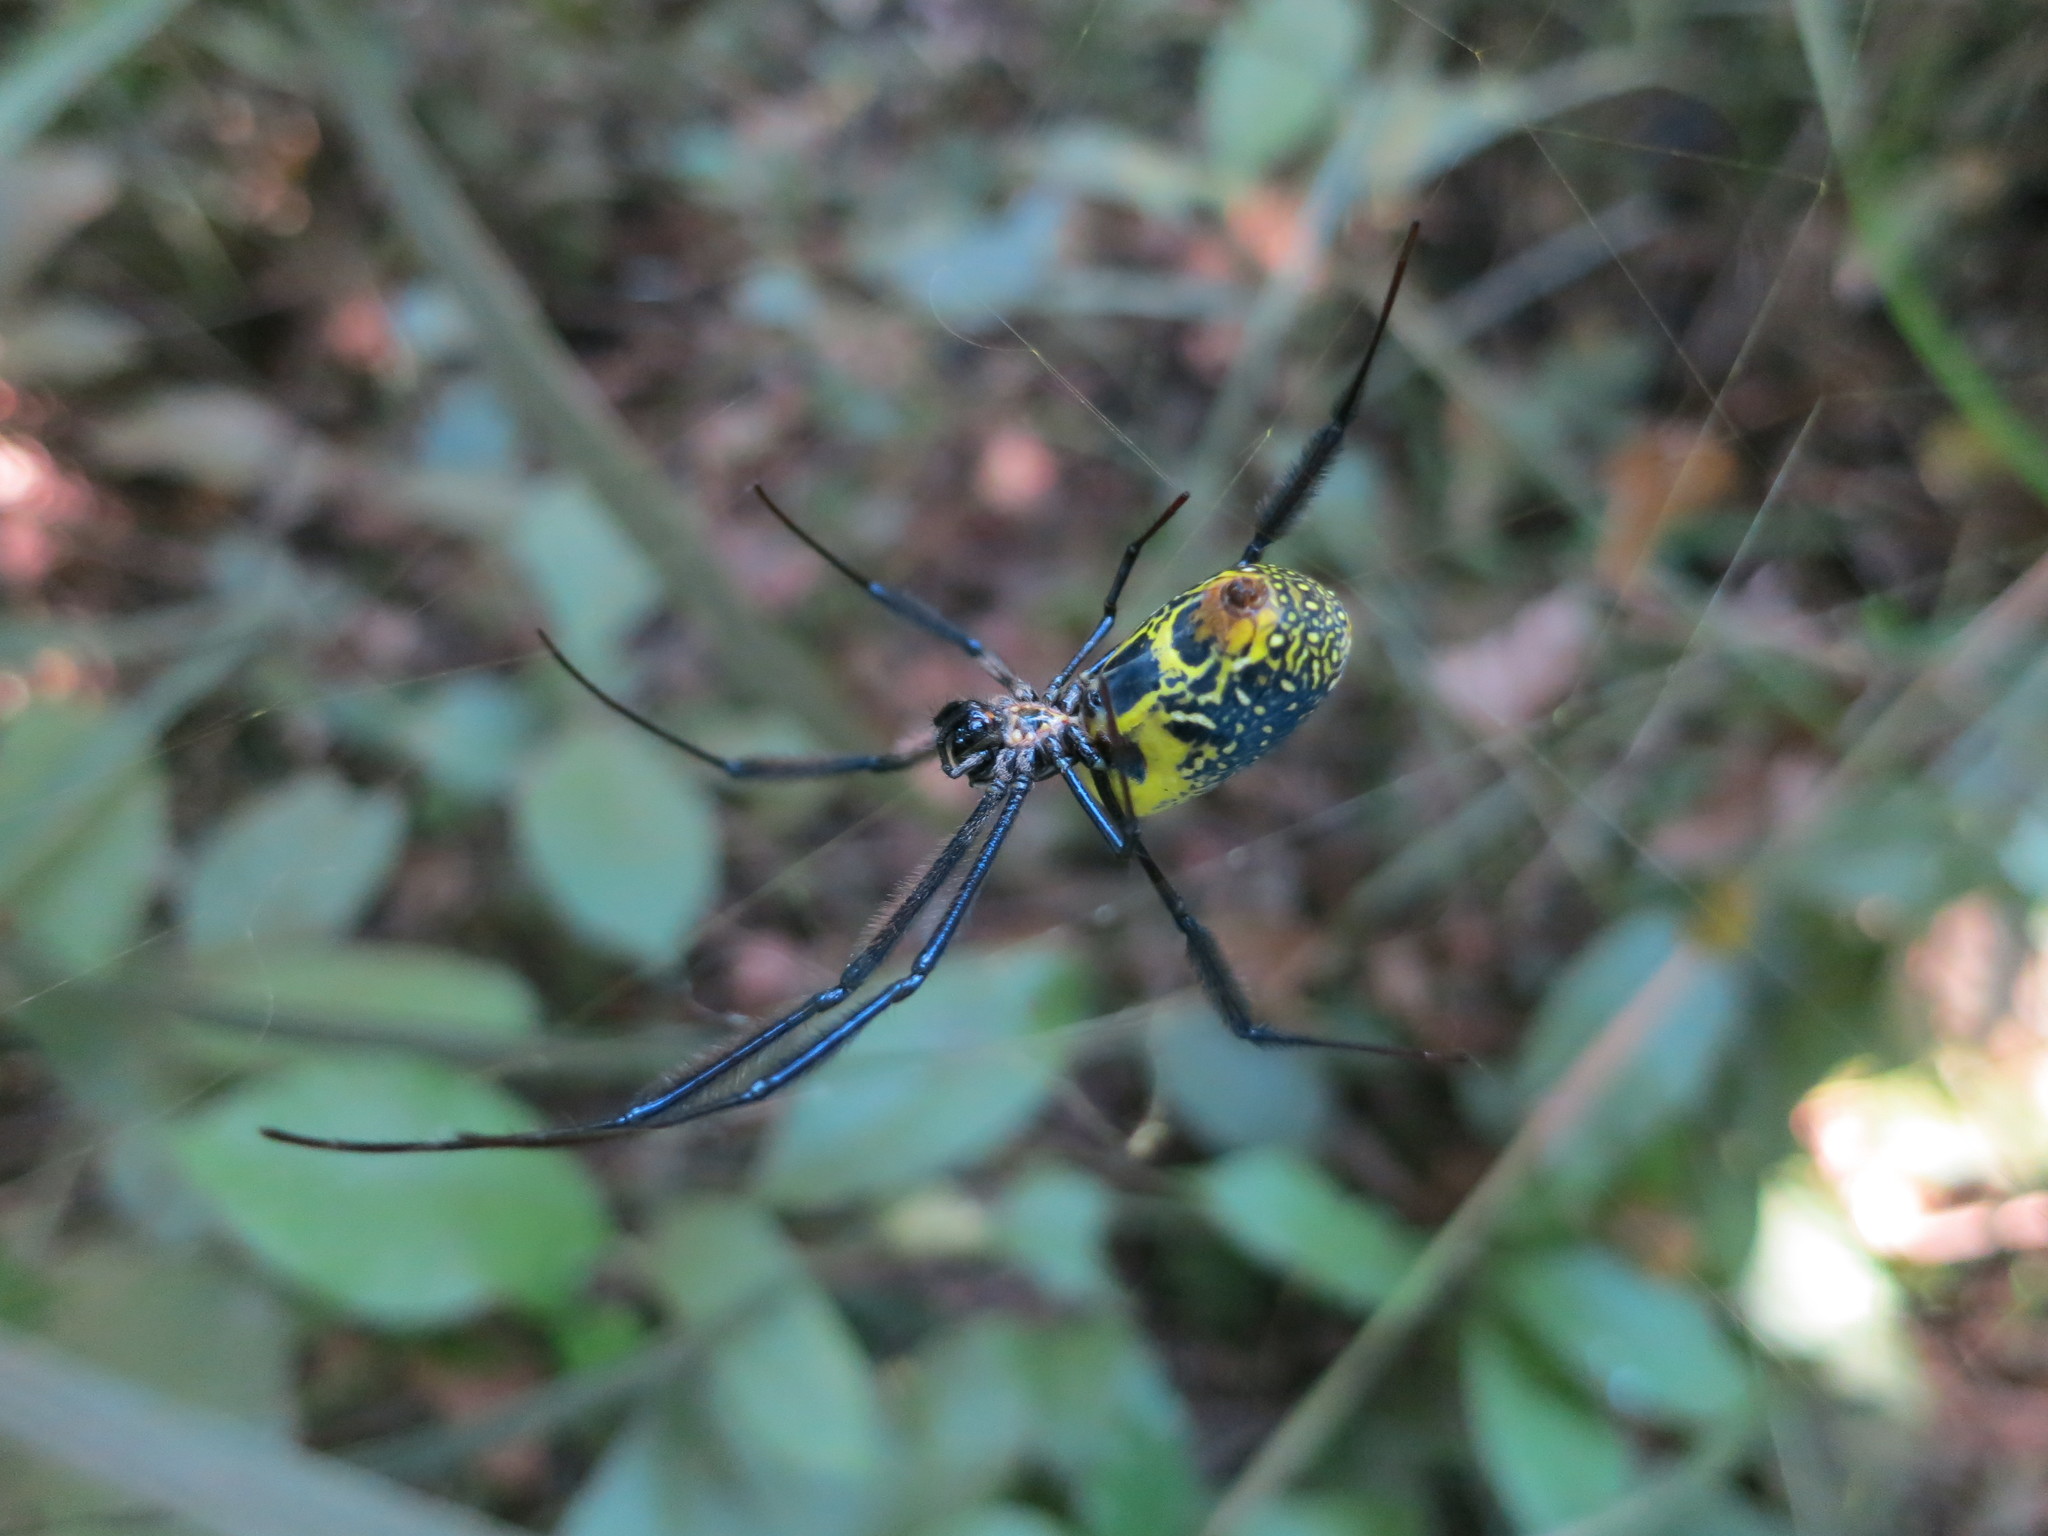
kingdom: Animalia
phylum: Arthropoda
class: Arachnida
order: Araneae
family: Araneidae
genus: Trichonephila
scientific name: Trichonephila fenestrata
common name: Hairy golden orb weaver
